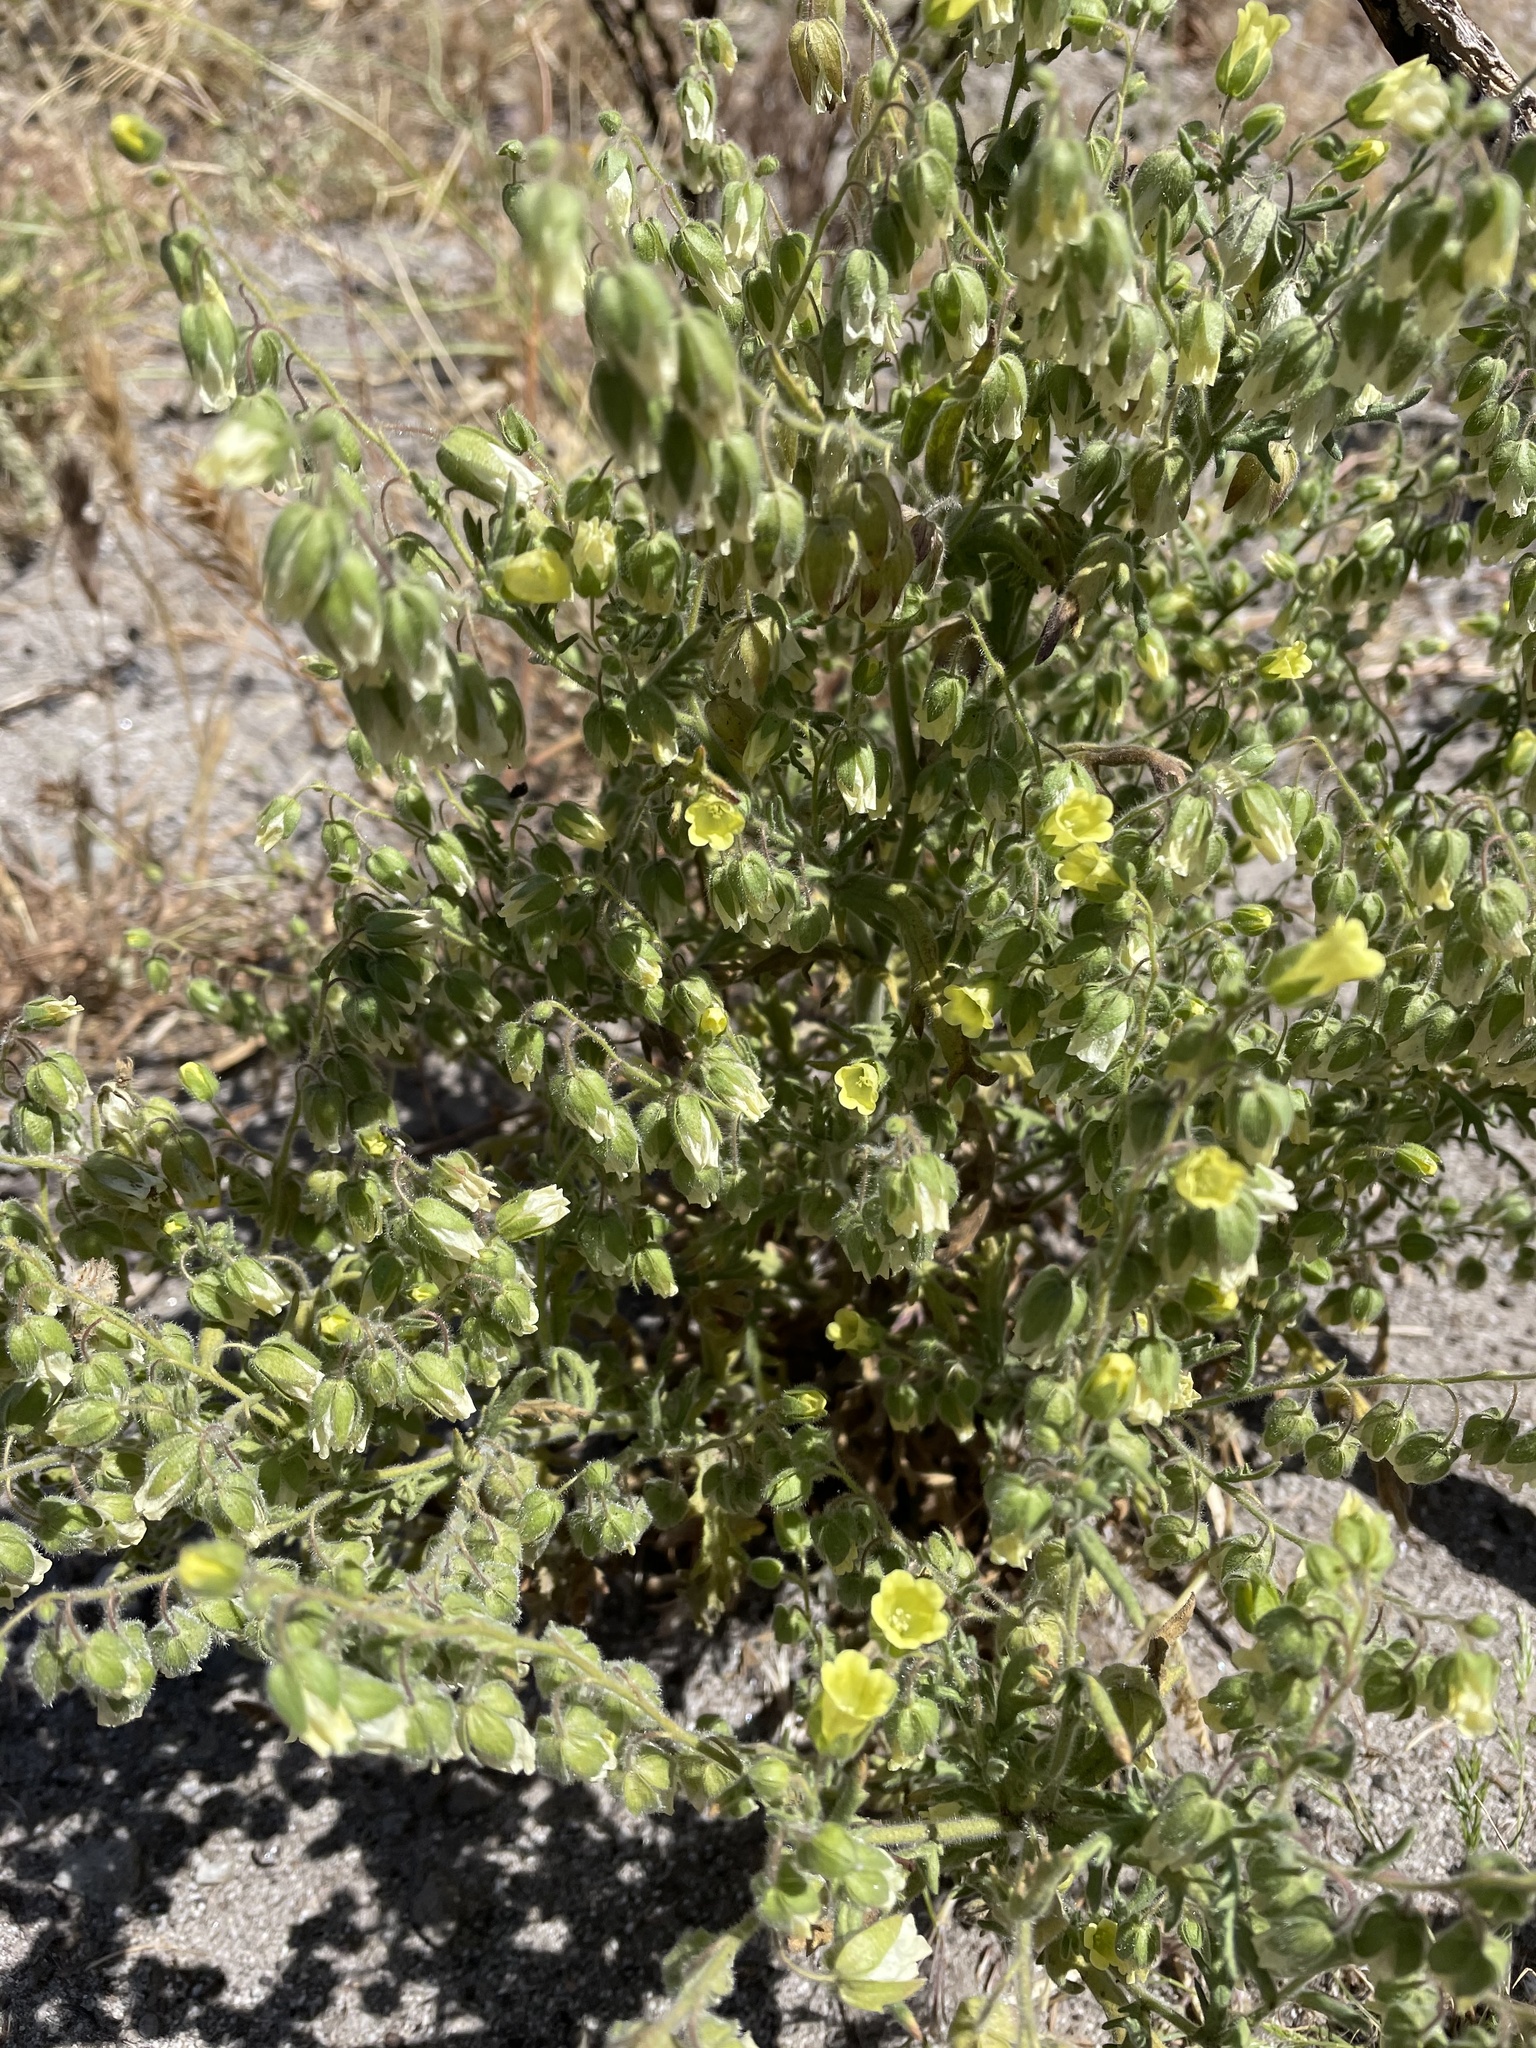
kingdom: Plantae
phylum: Tracheophyta
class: Magnoliopsida
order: Boraginales
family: Hydrophyllaceae
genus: Emmenanthe
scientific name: Emmenanthe penduliflora
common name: Whispering-bells
